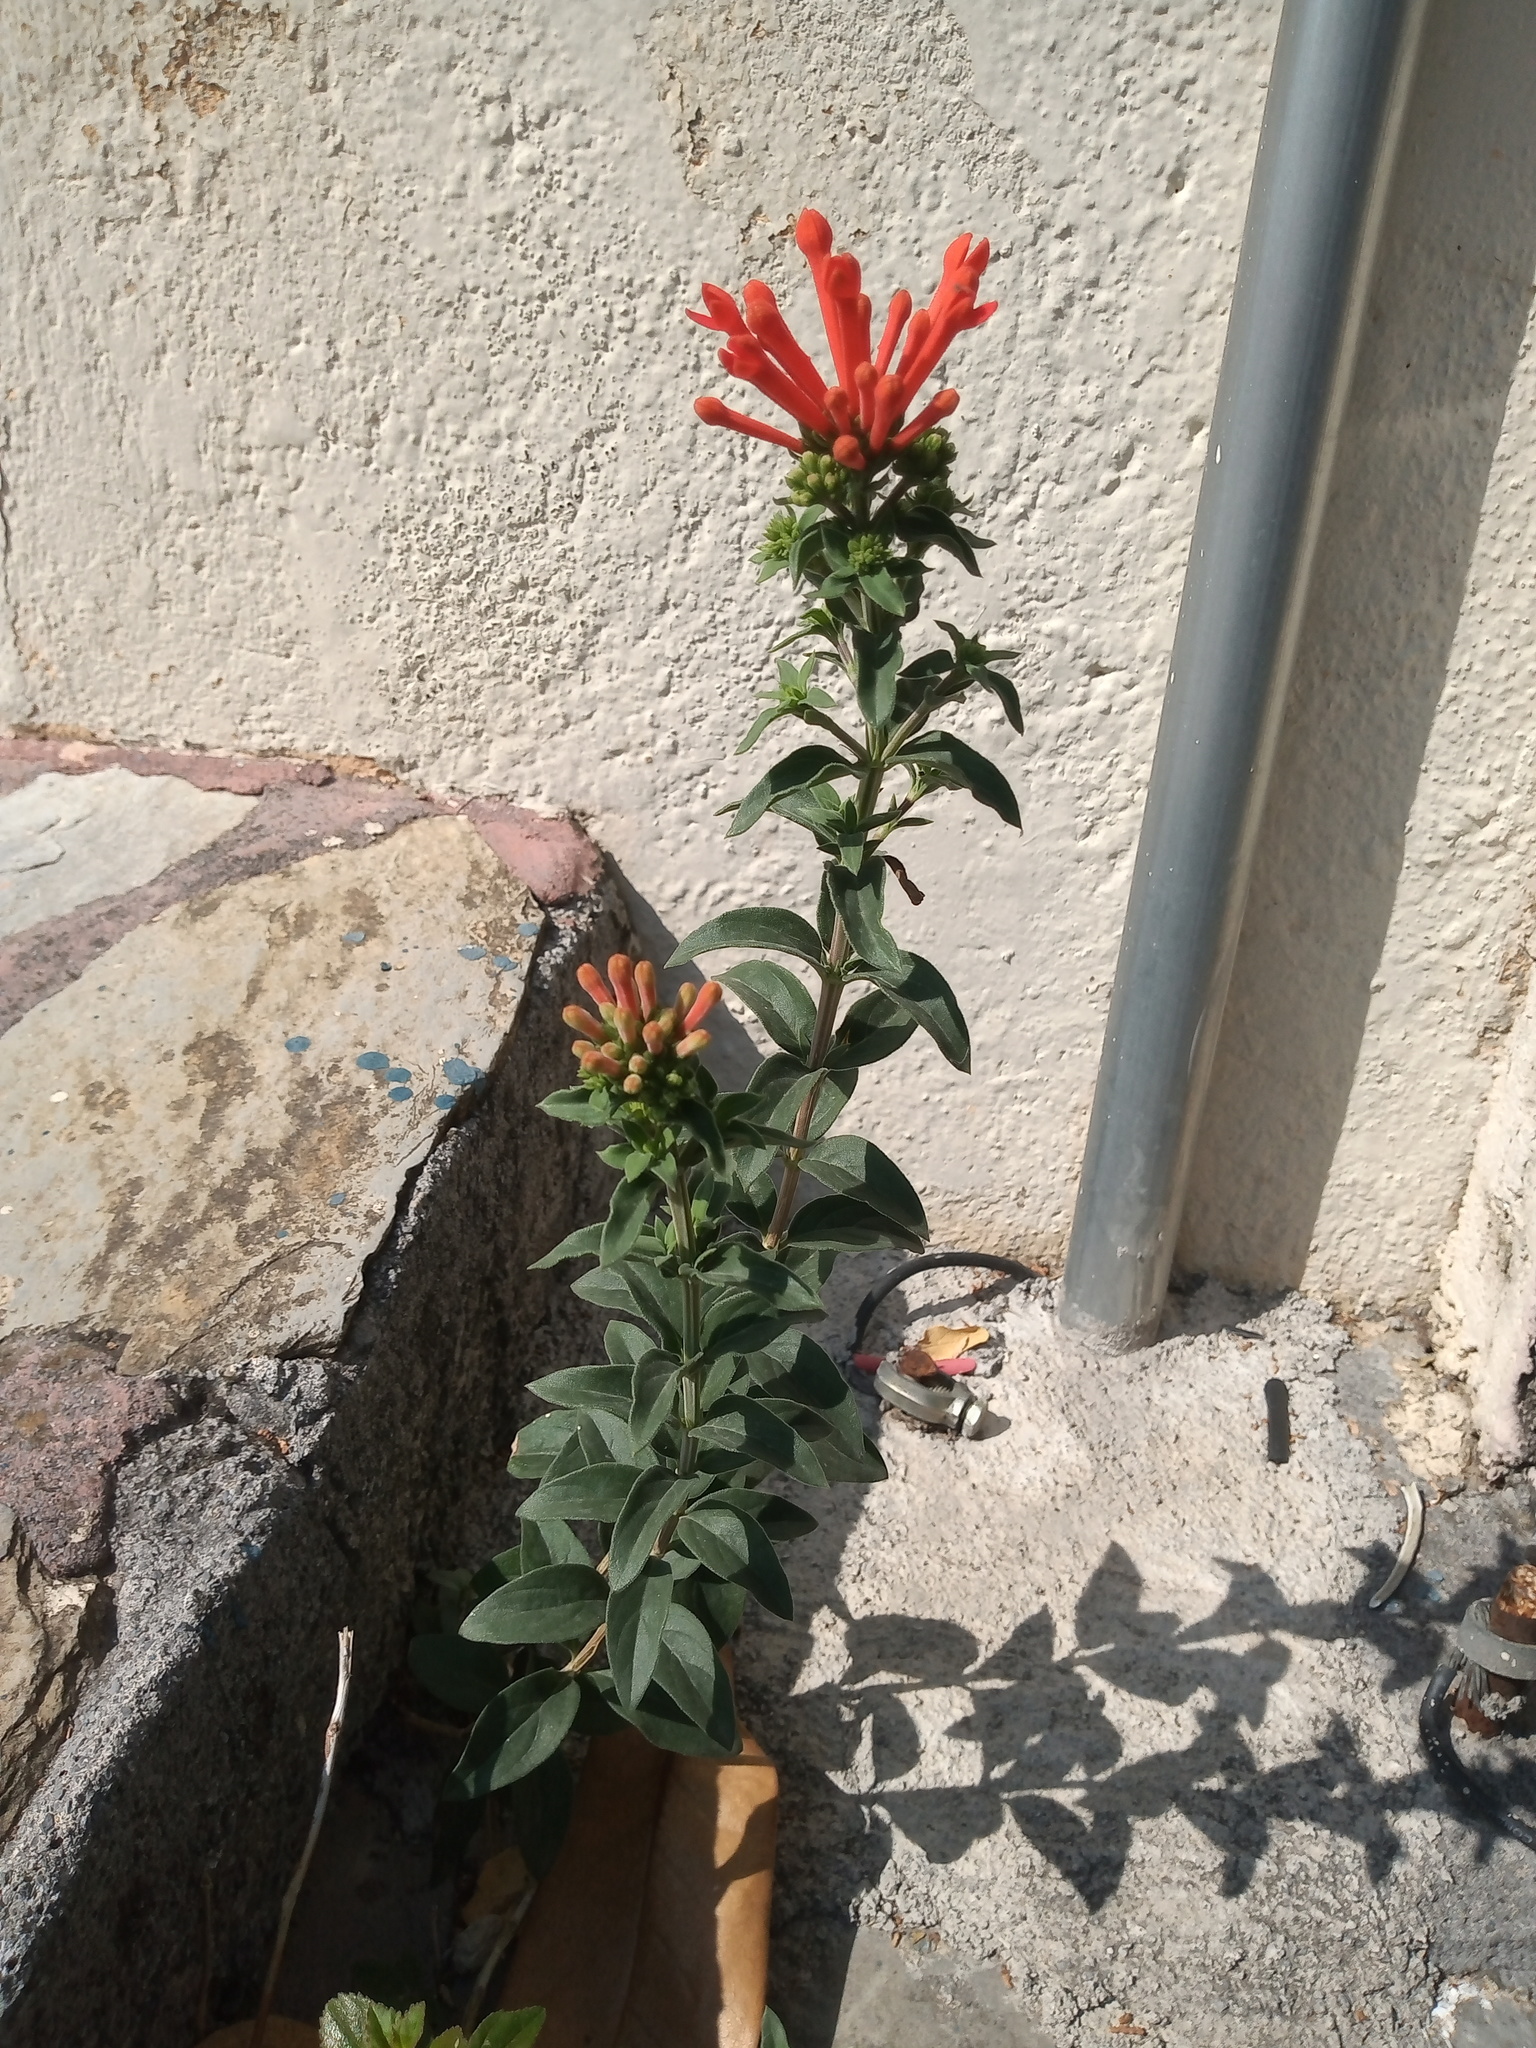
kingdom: Plantae
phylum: Tracheophyta
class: Magnoliopsida
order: Gentianales
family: Rubiaceae
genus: Bouvardia
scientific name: Bouvardia ternifolia
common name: Scarlet bouvardia
